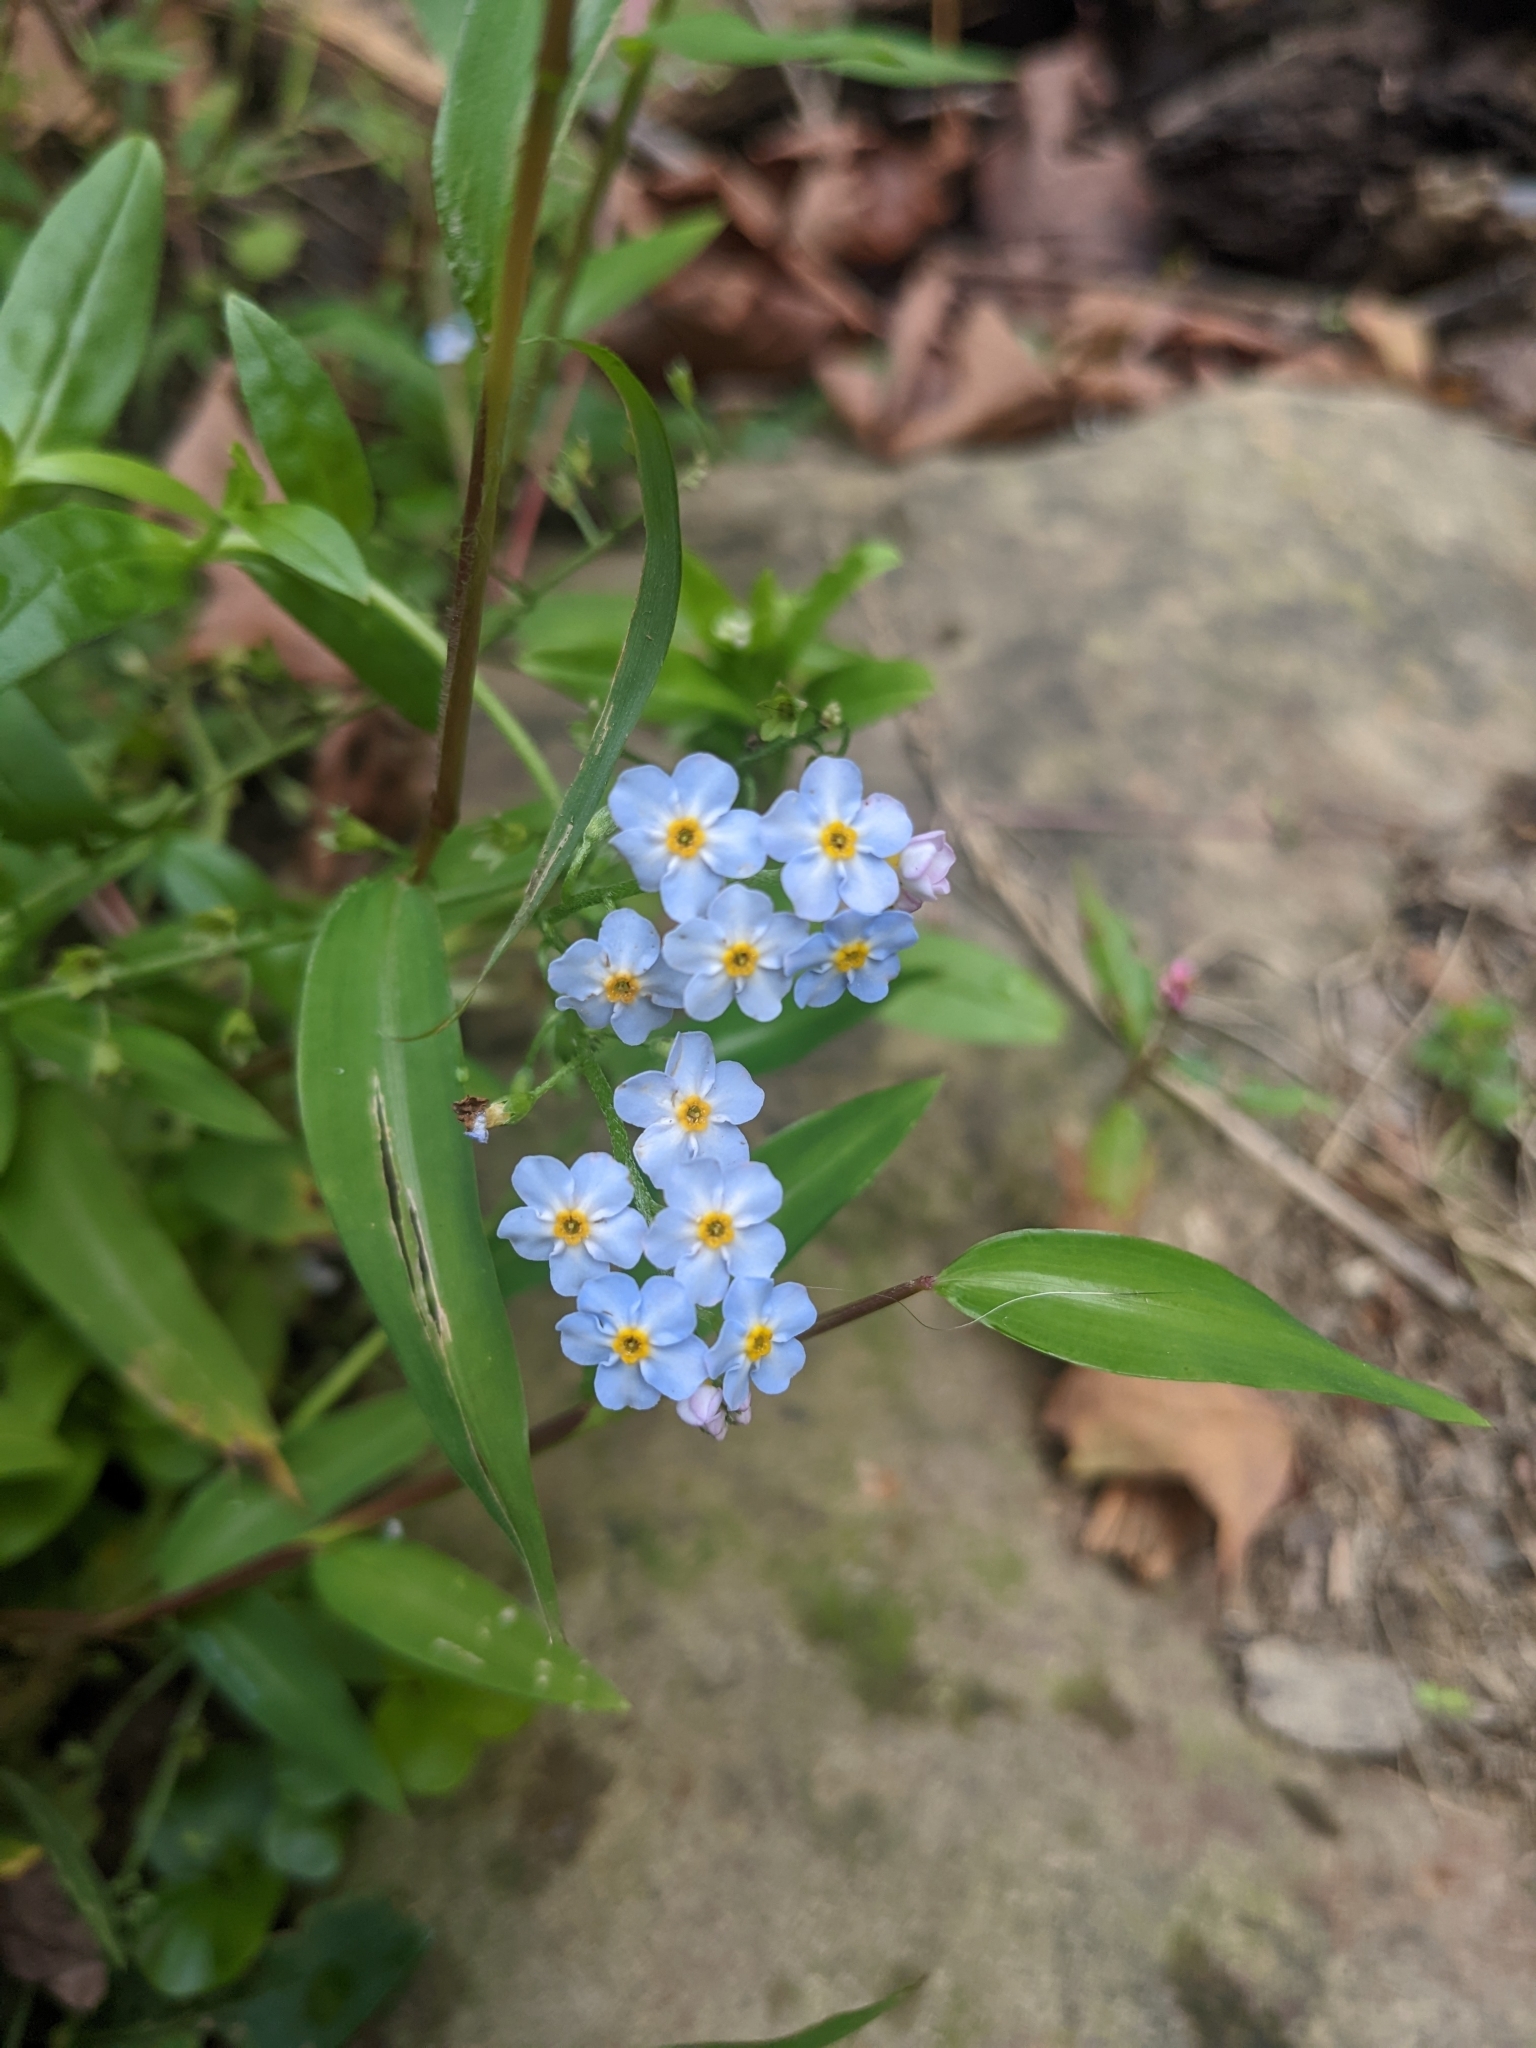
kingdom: Plantae
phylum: Tracheophyta
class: Magnoliopsida
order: Boraginales
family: Boraginaceae
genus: Myosotis
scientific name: Myosotis scorpioides
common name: Water forget-me-not
